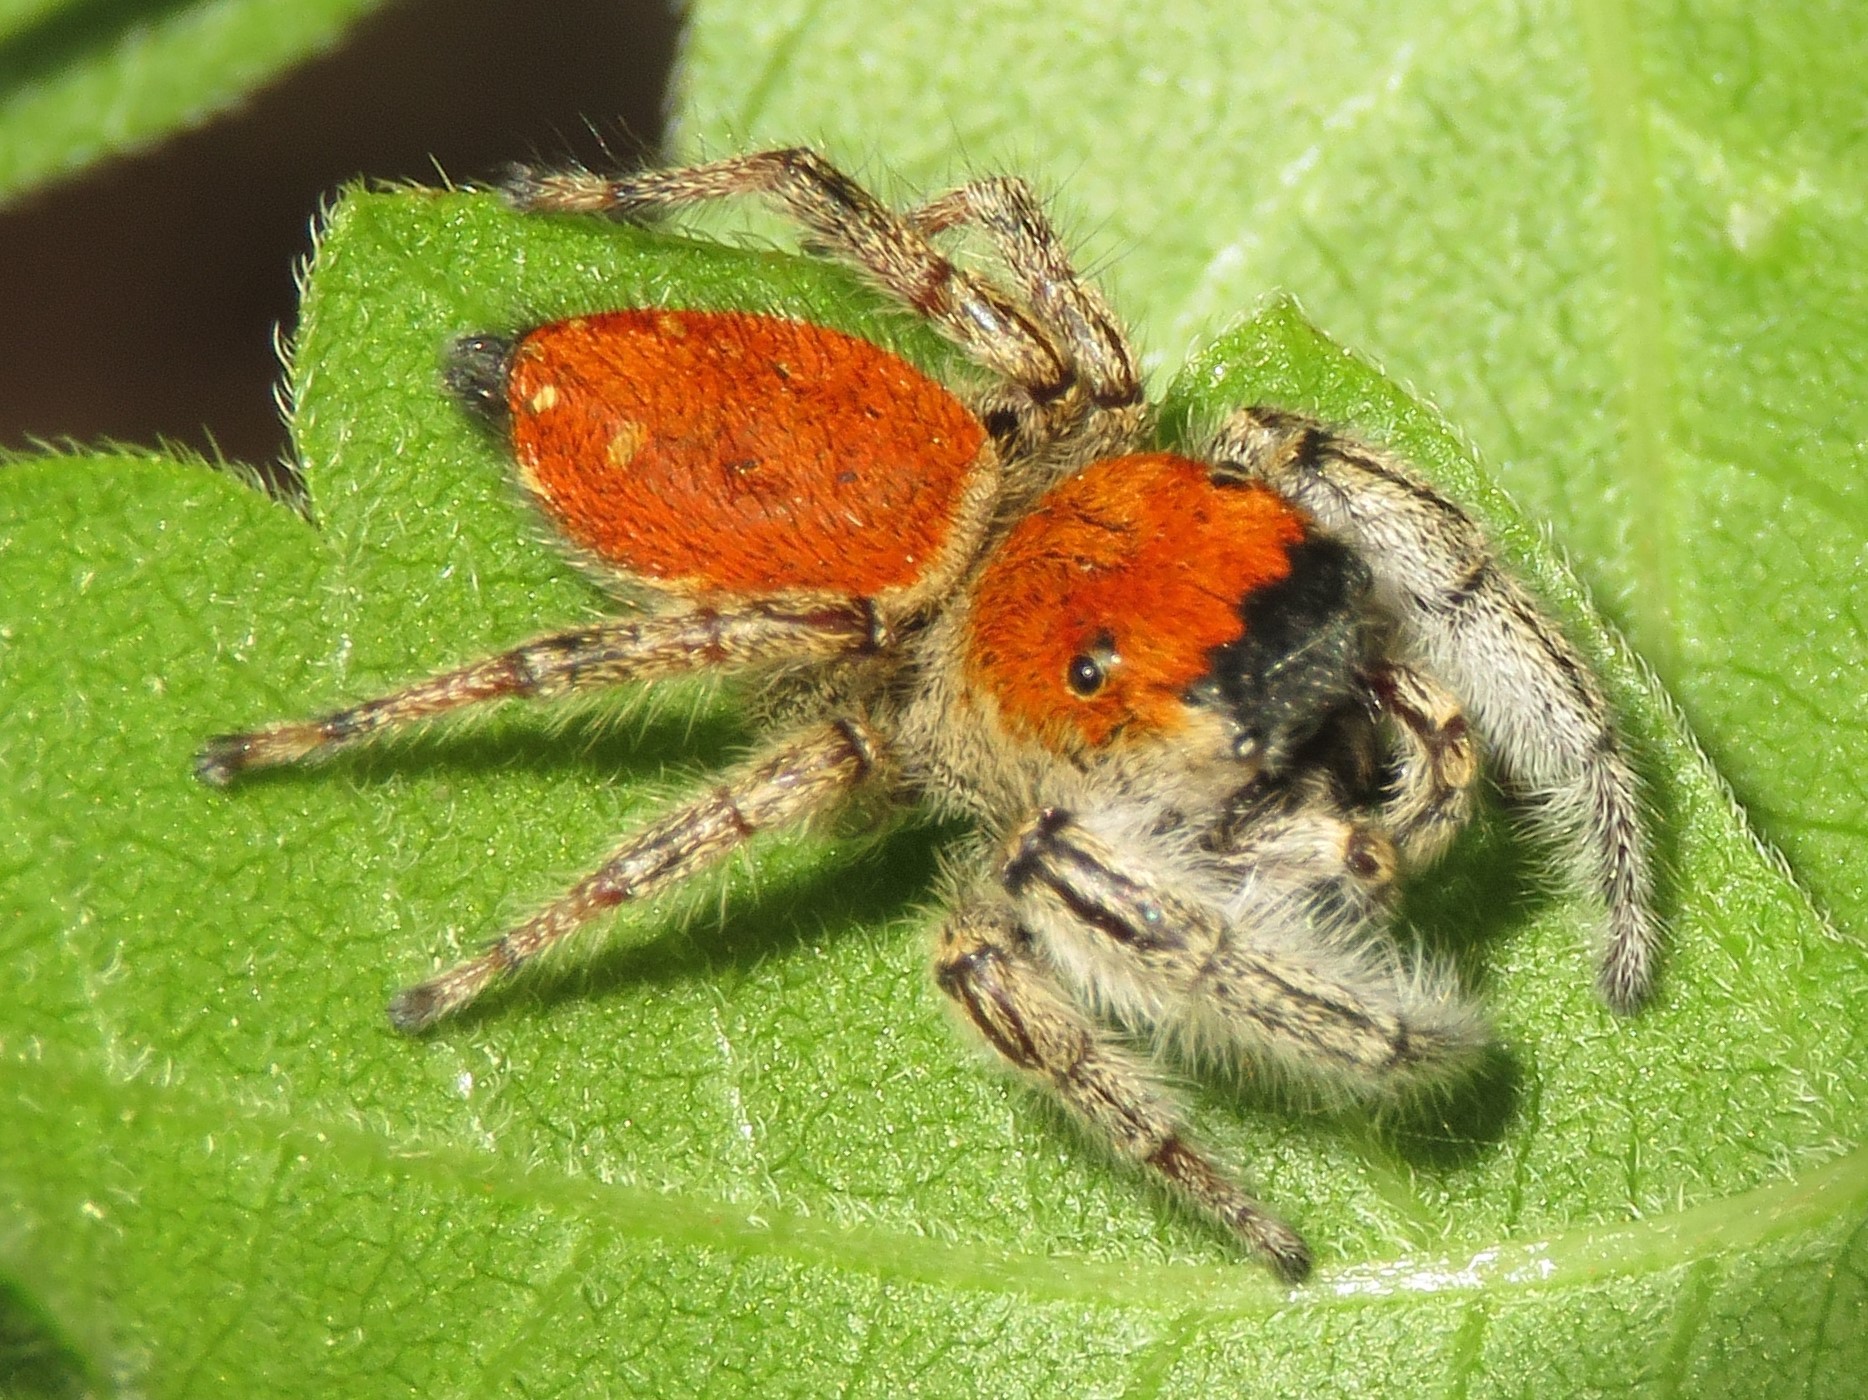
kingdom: Animalia
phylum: Arthropoda
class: Arachnida
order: Araneae
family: Salticidae
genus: Phidippus
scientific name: Phidippus whitmani
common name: Whitman's jumping spider
